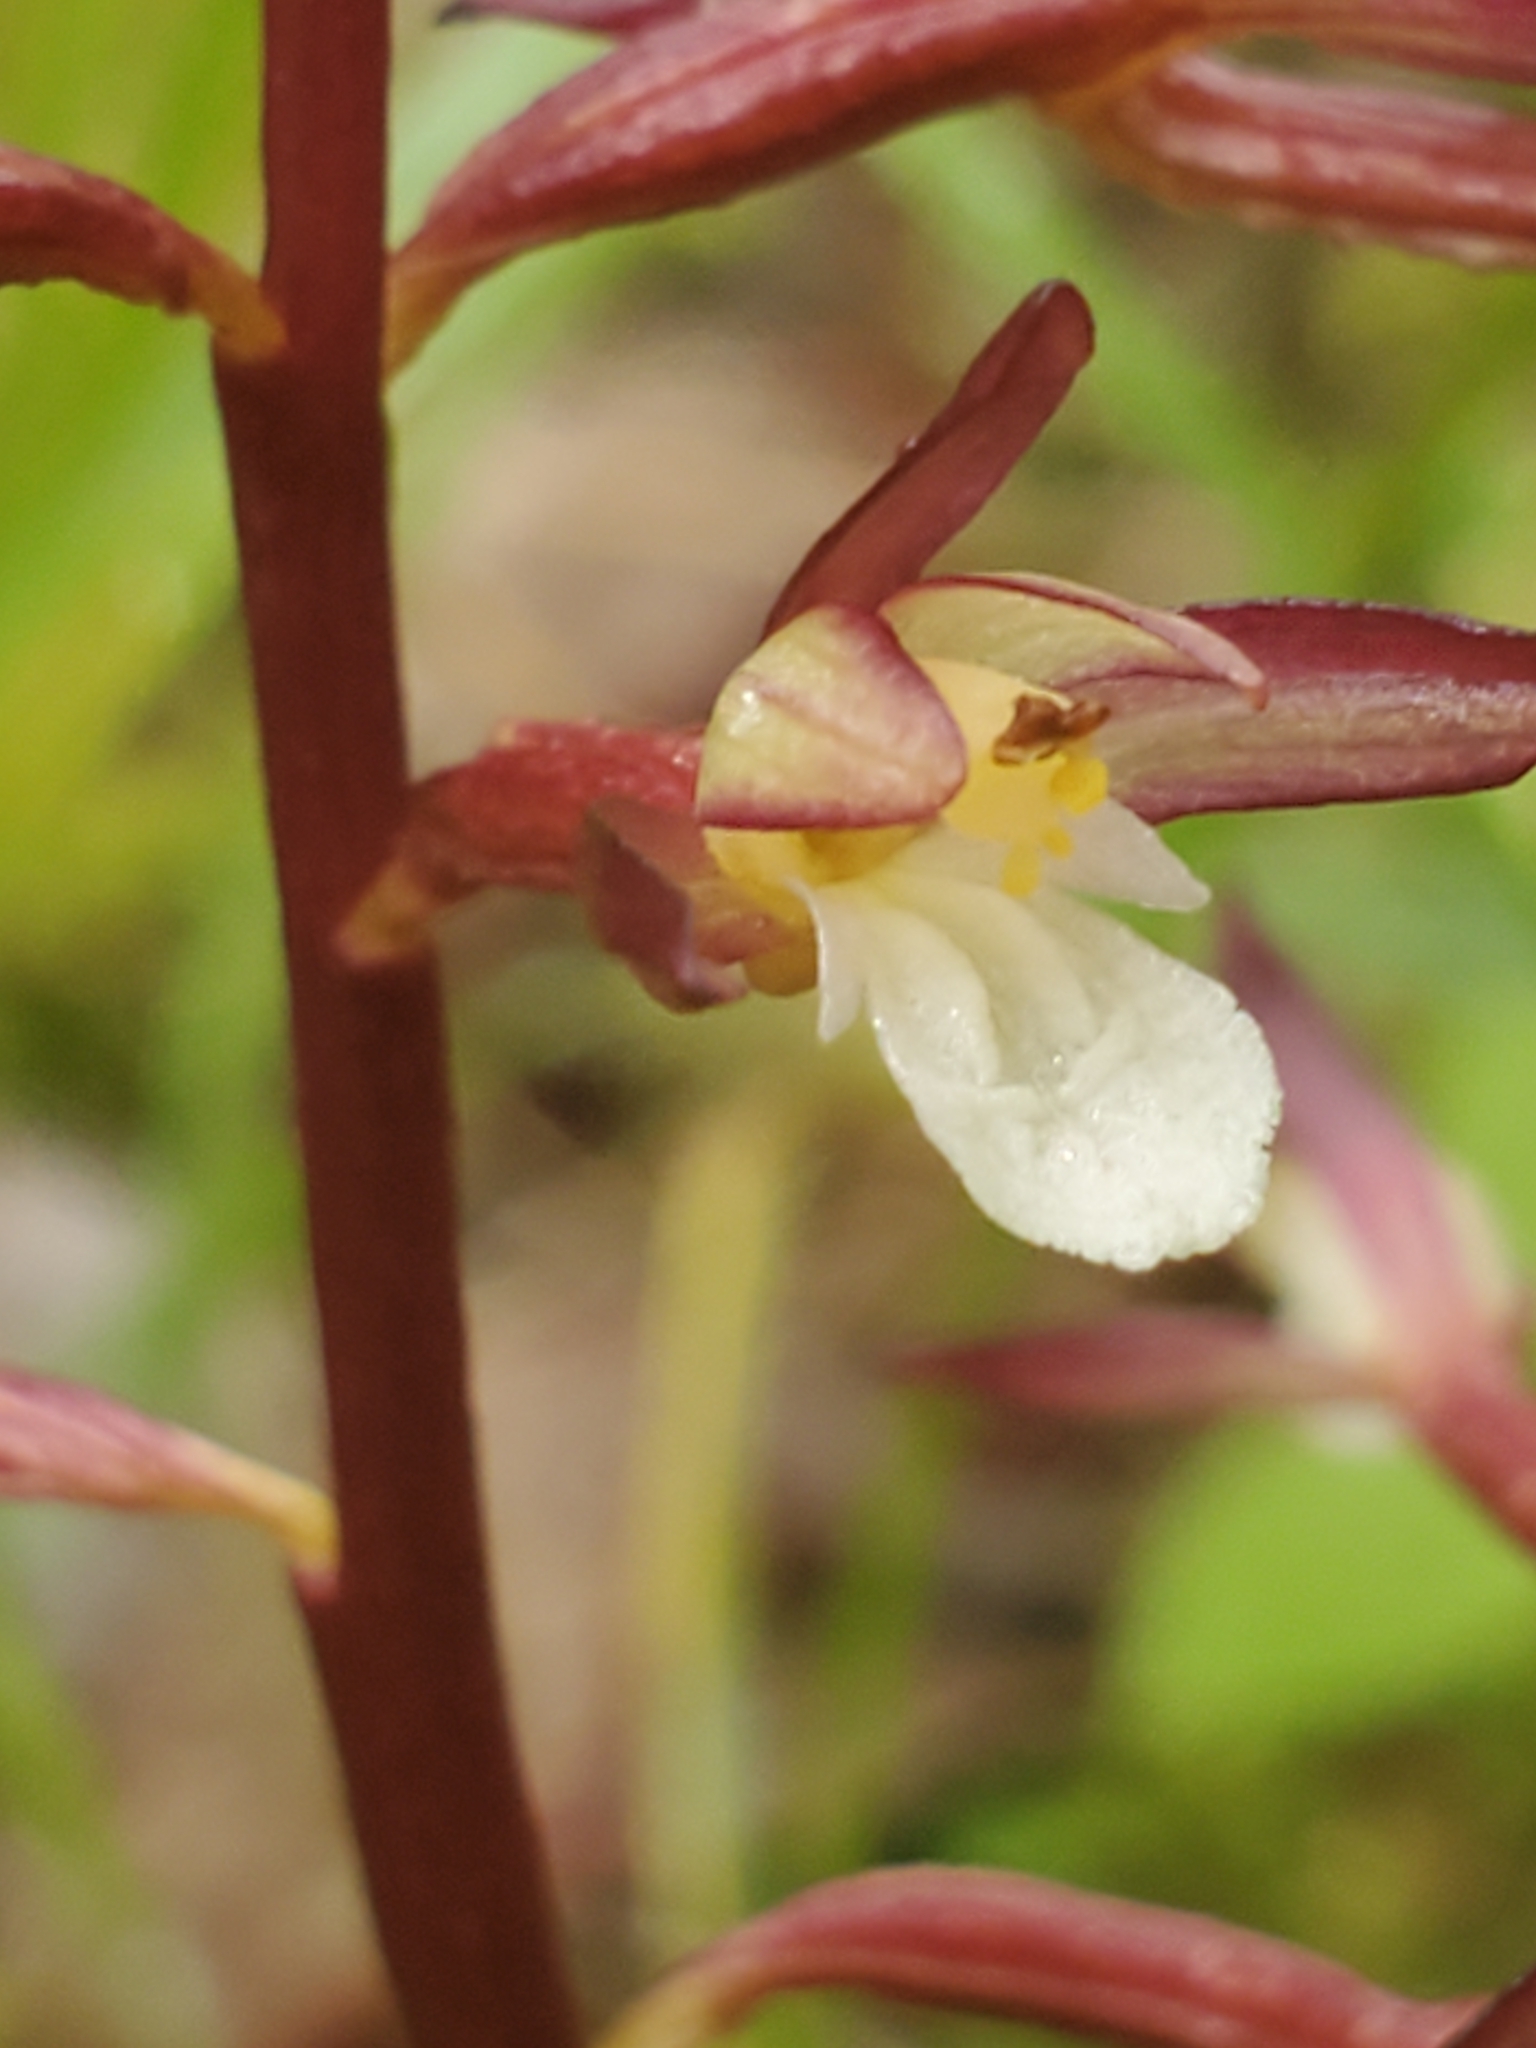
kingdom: Plantae
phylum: Tracheophyta
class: Liliopsida
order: Asparagales
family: Orchidaceae
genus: Corallorhiza
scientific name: Corallorhiza maculata
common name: Spotted coralroot
